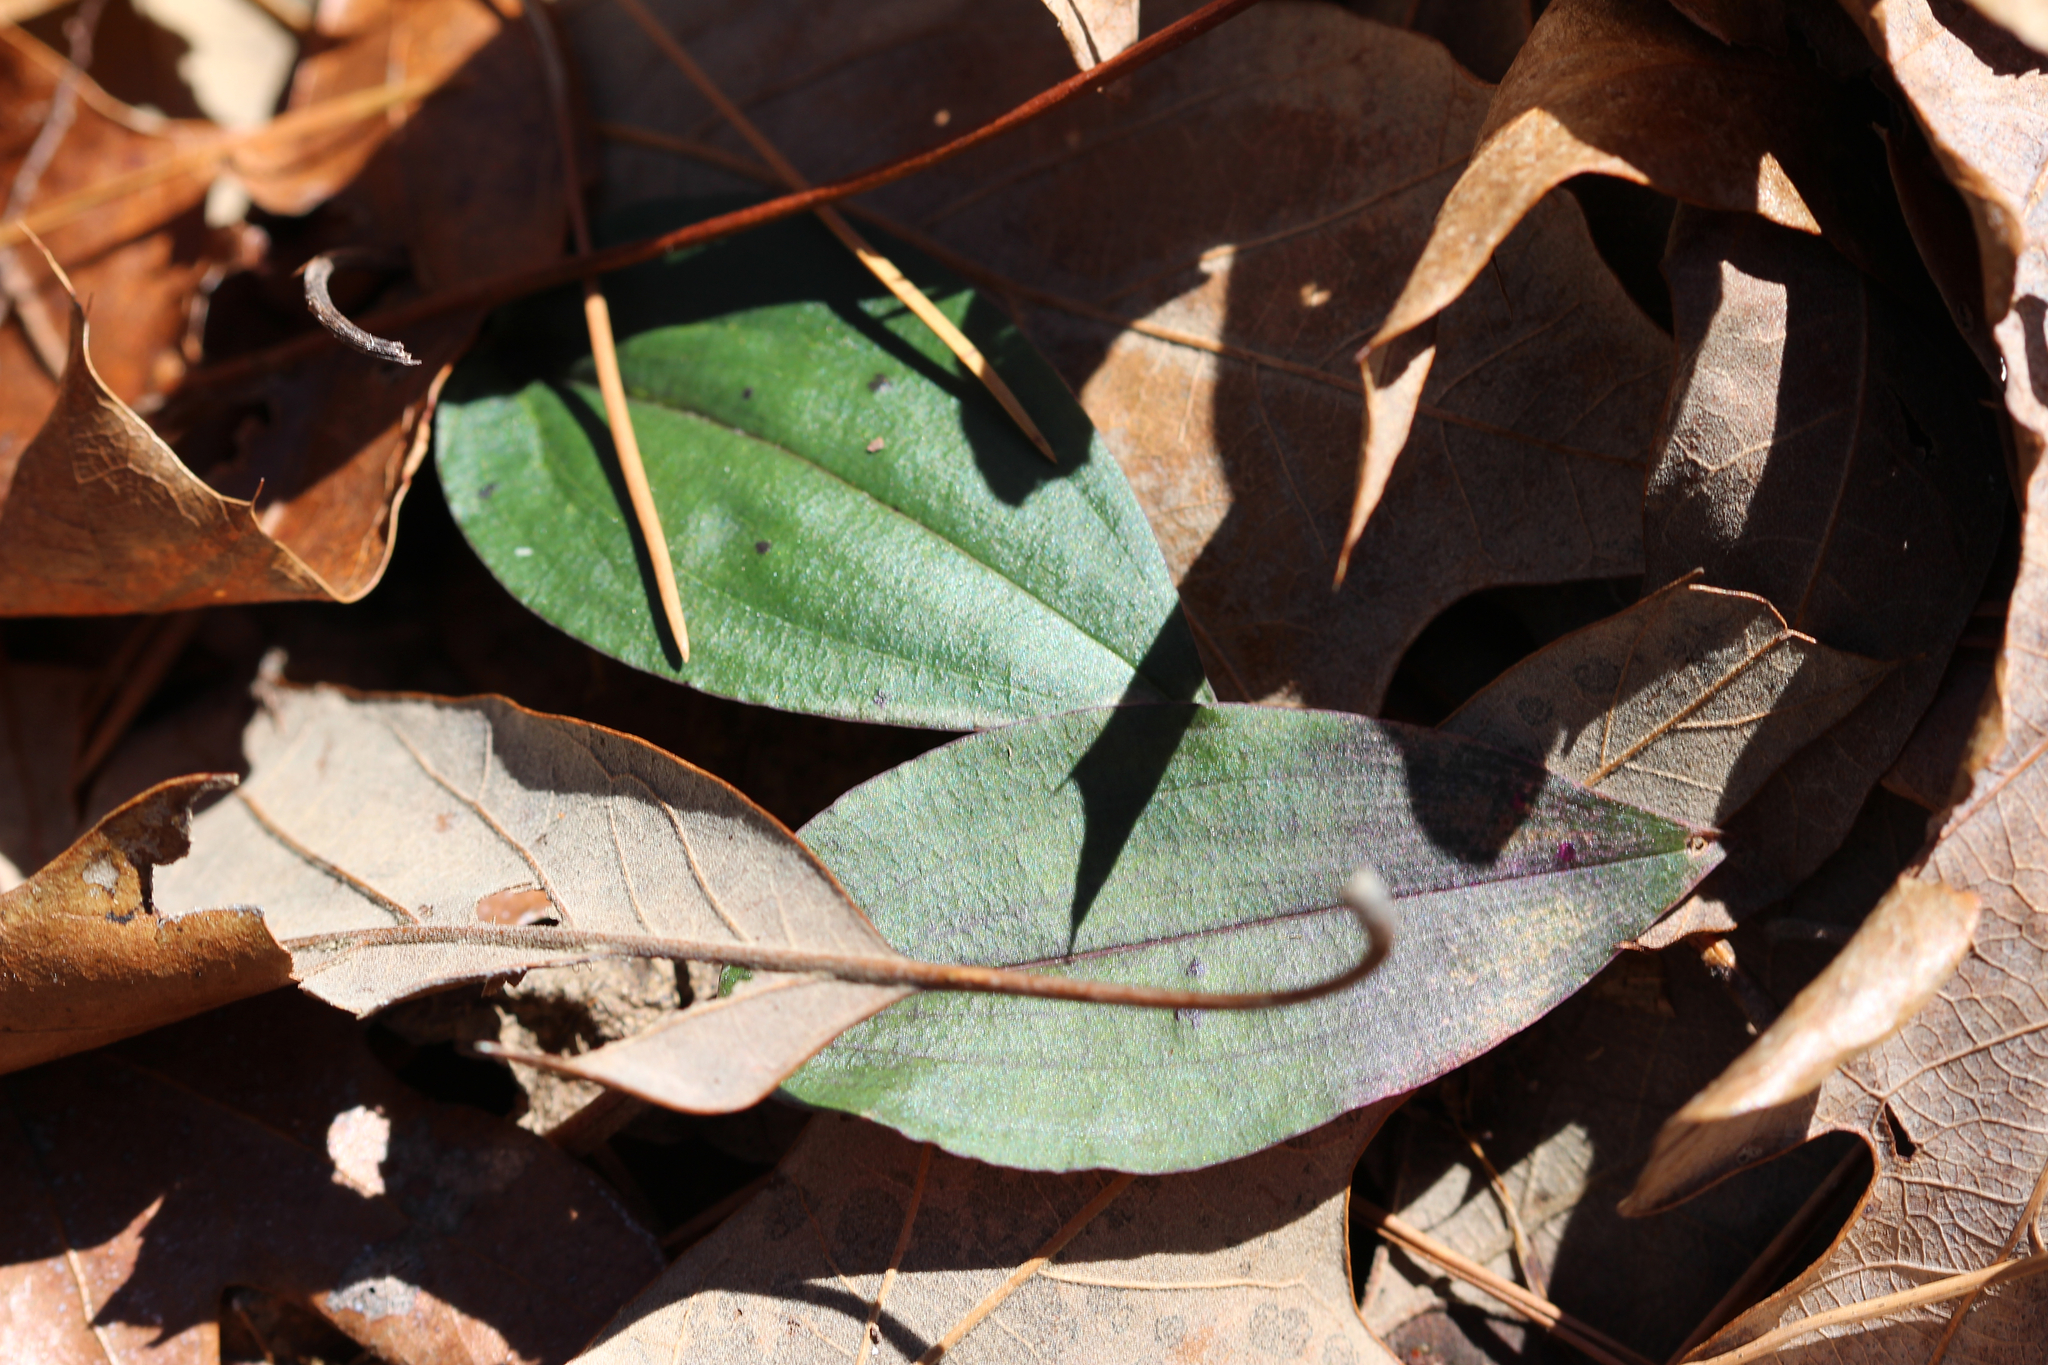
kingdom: Plantae
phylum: Tracheophyta
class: Liliopsida
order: Asparagales
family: Orchidaceae
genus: Tipularia
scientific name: Tipularia discolor
